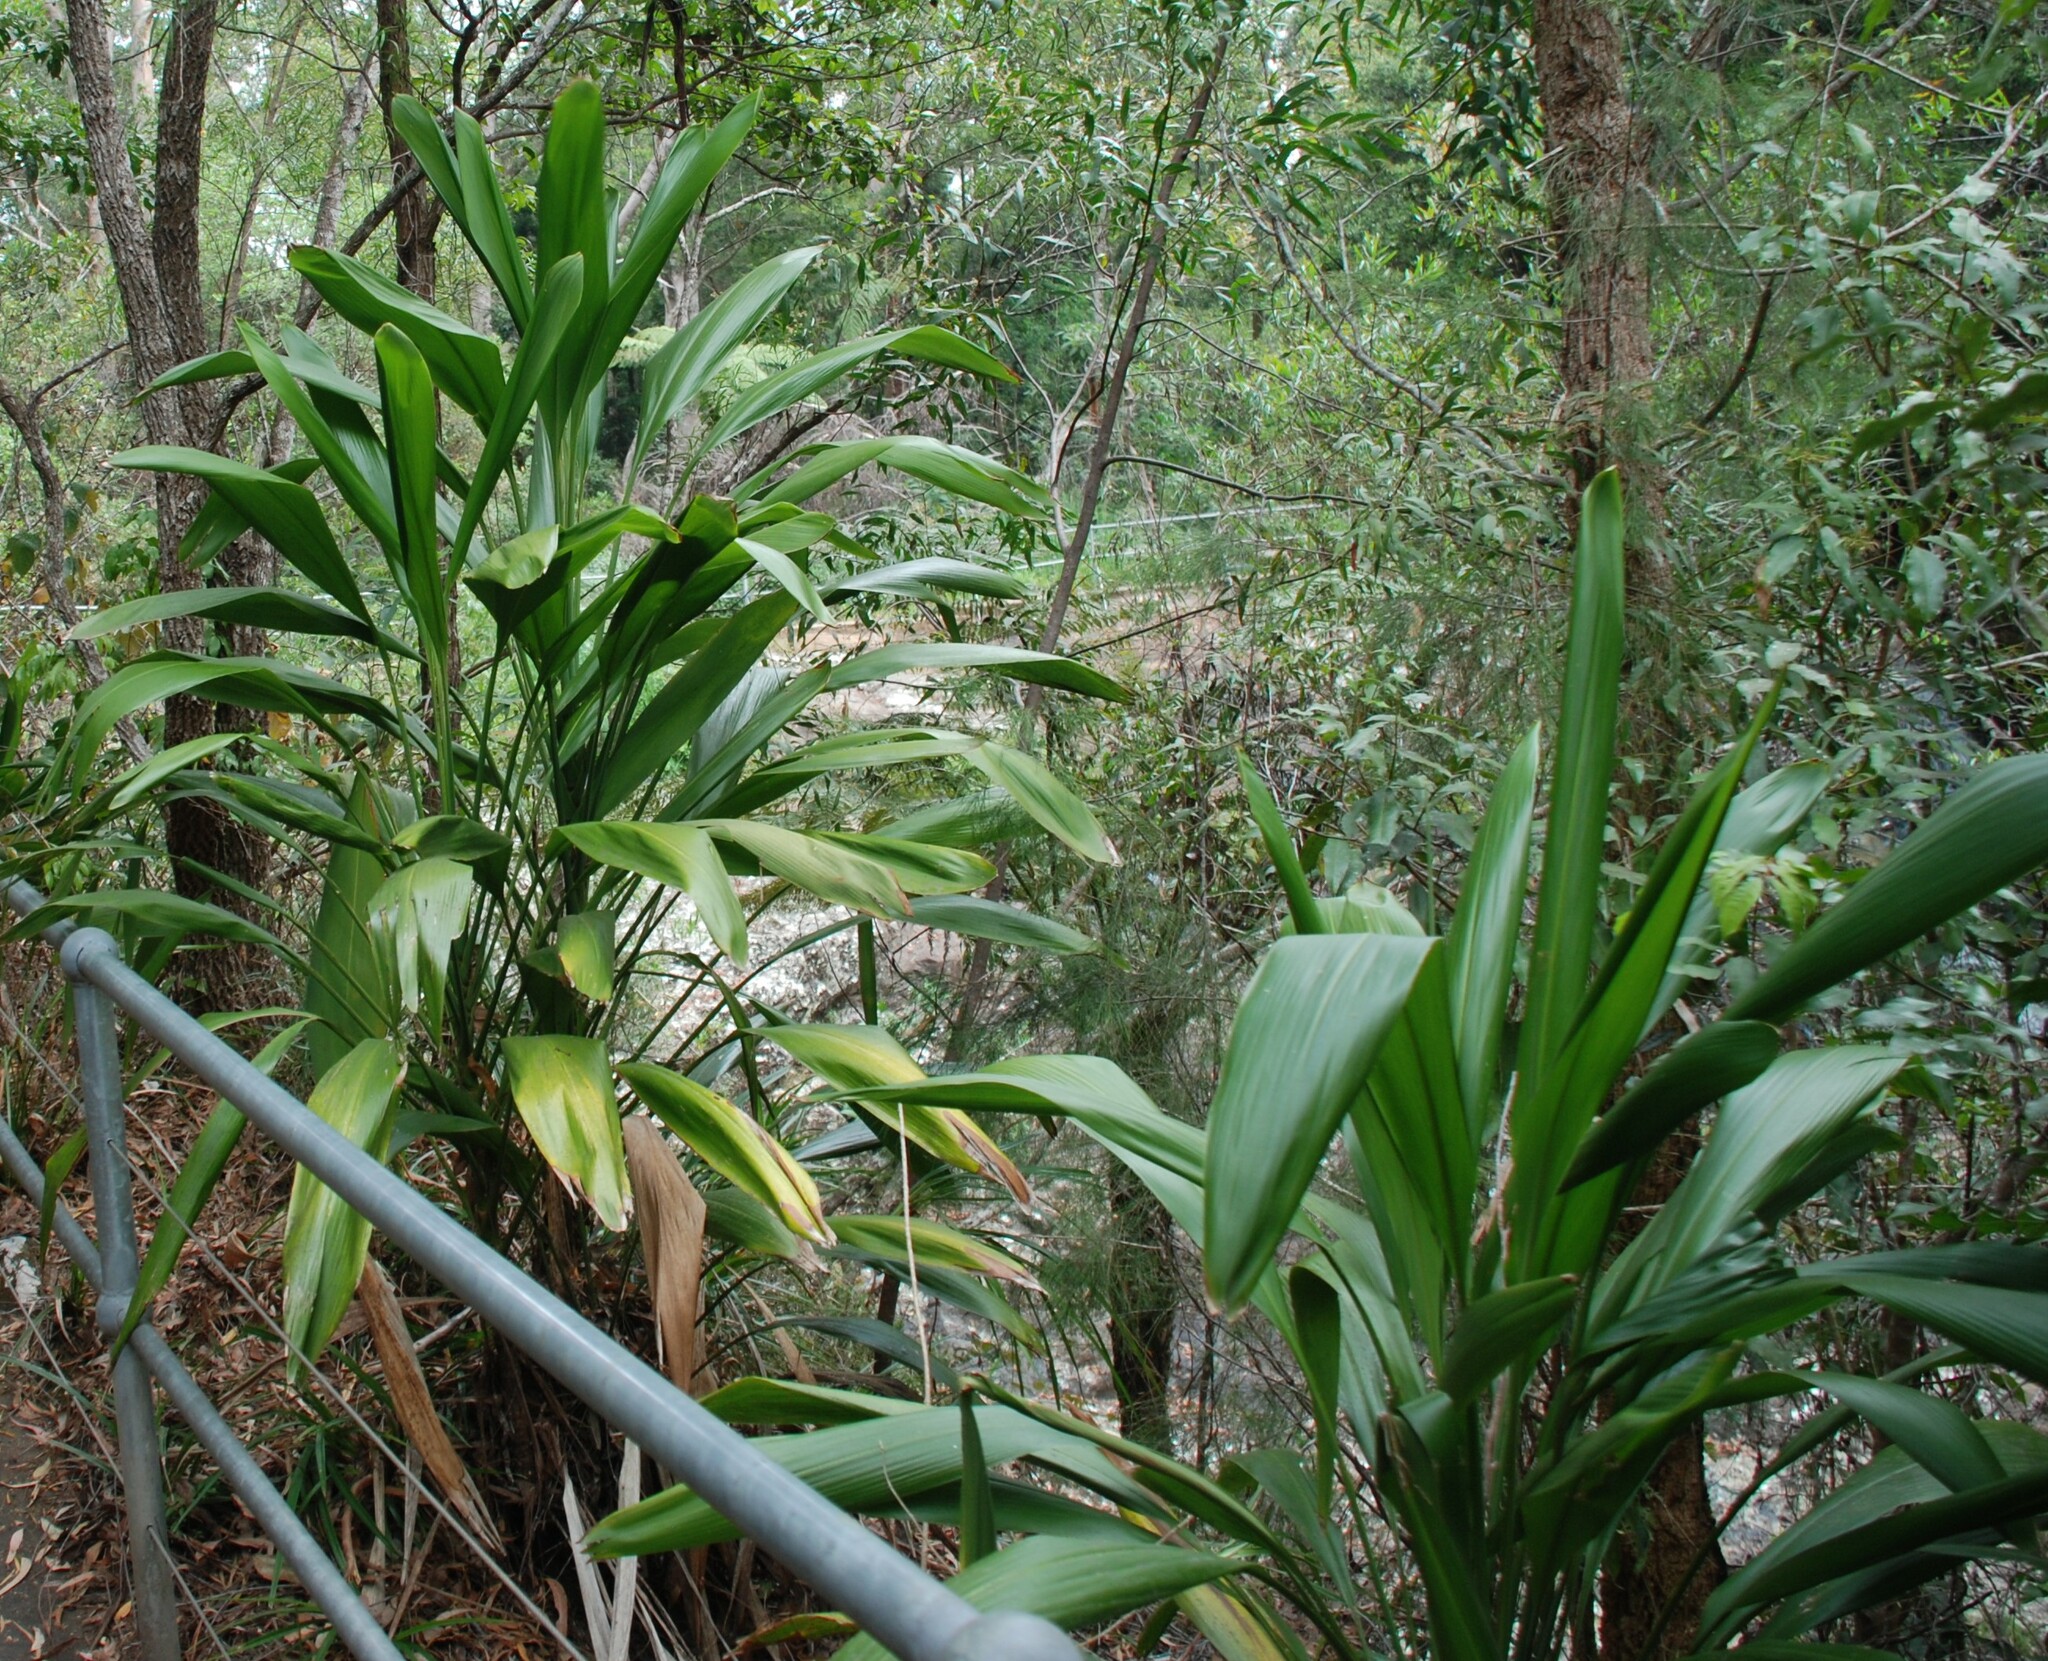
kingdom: Plantae
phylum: Tracheophyta
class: Liliopsida
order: Asparagales
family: Asparagaceae
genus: Cordyline
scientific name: Cordyline petiolaris
